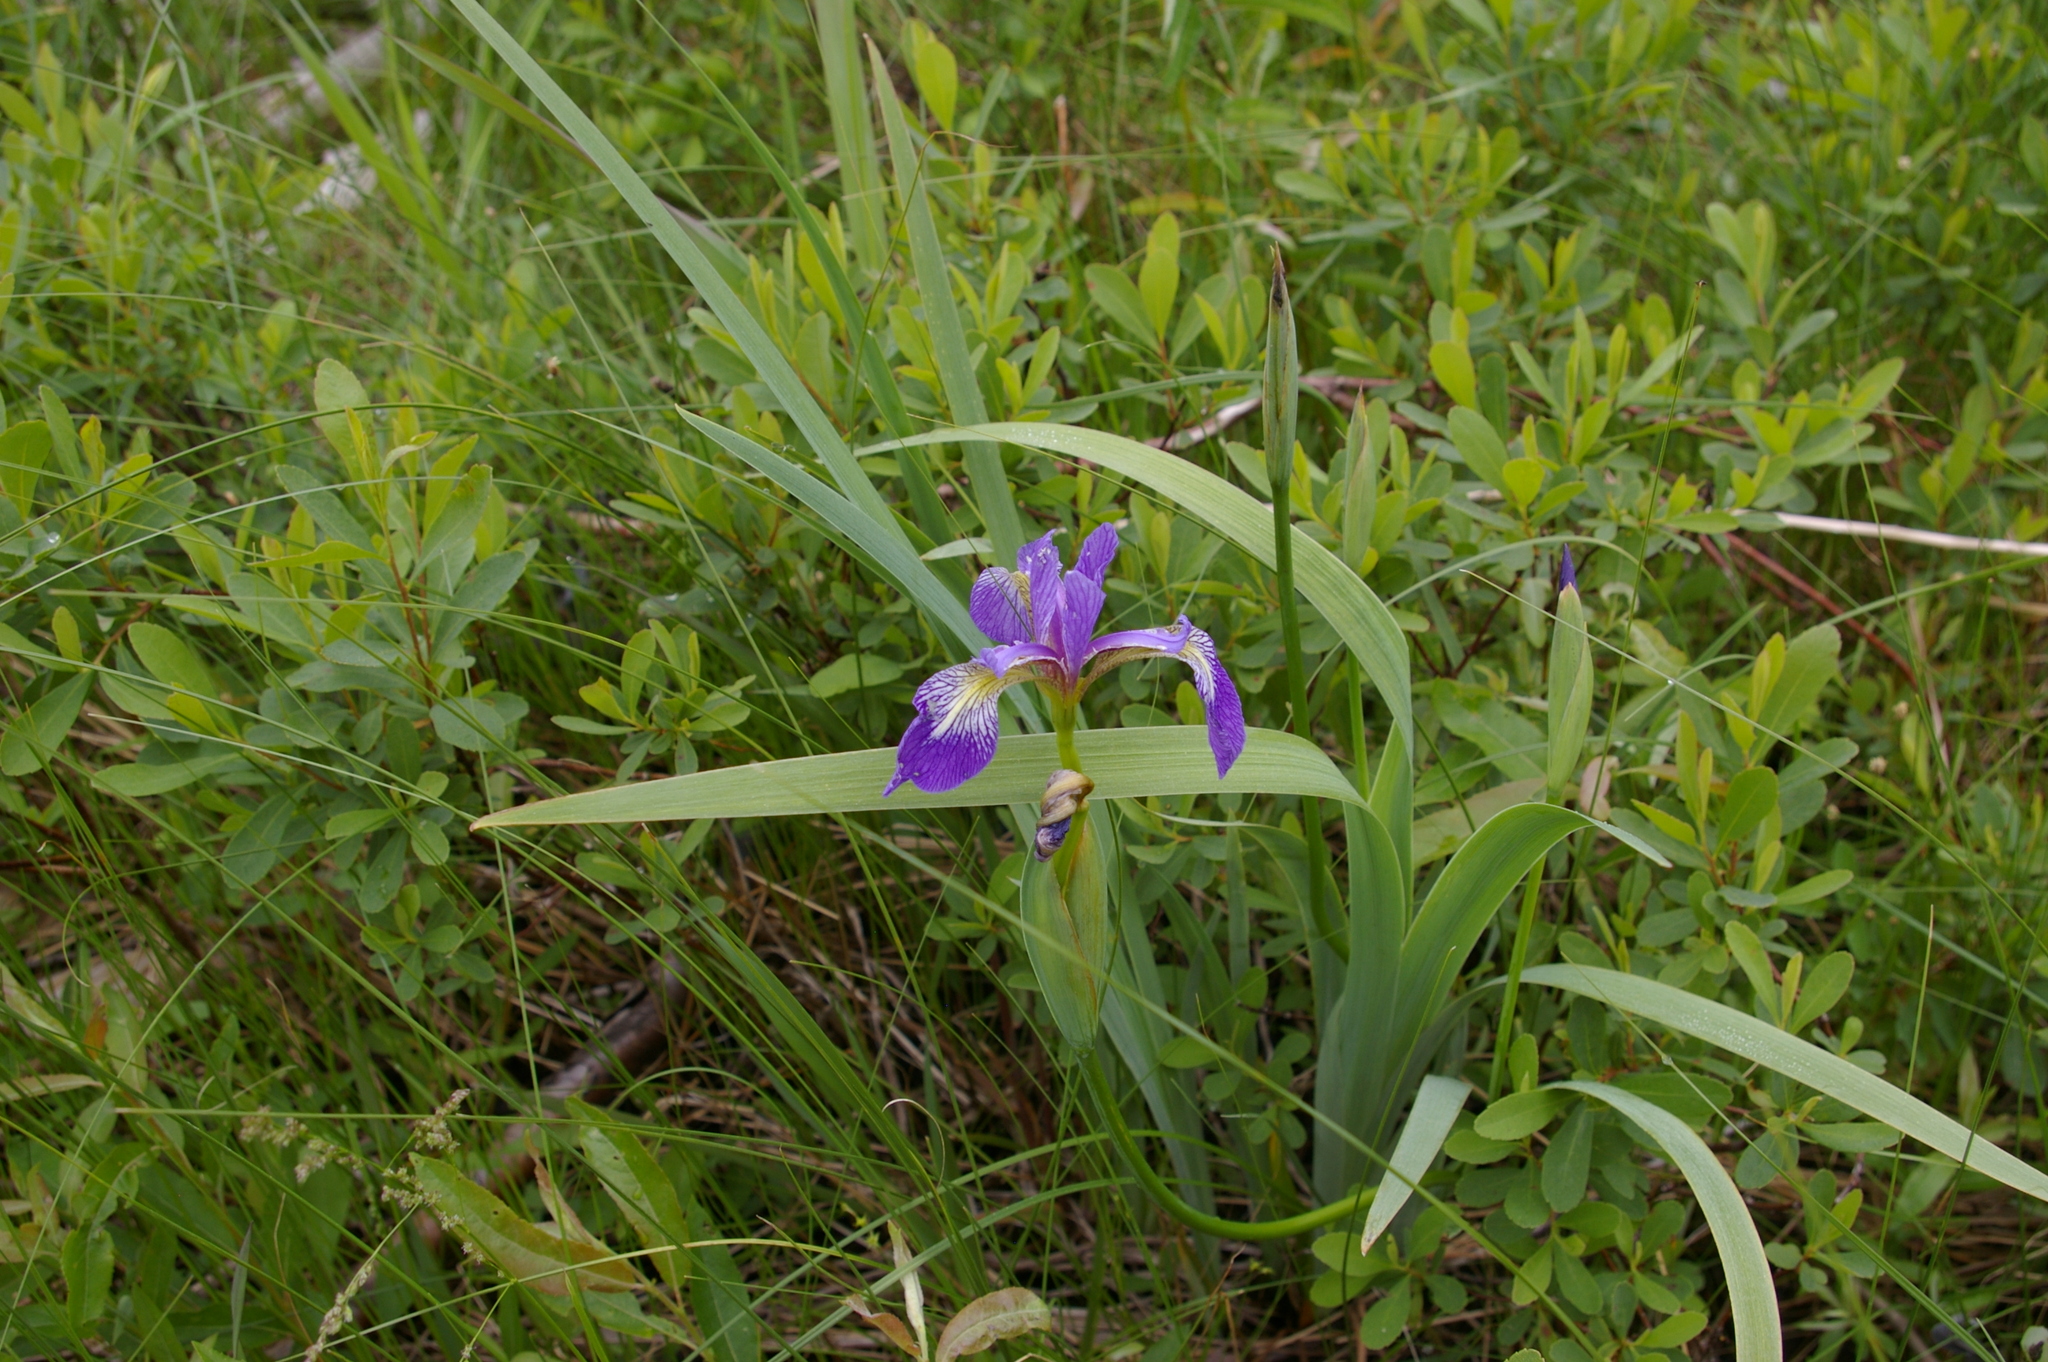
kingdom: Plantae
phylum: Tracheophyta
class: Liliopsida
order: Asparagales
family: Iridaceae
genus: Iris
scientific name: Iris versicolor
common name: Purple iris
